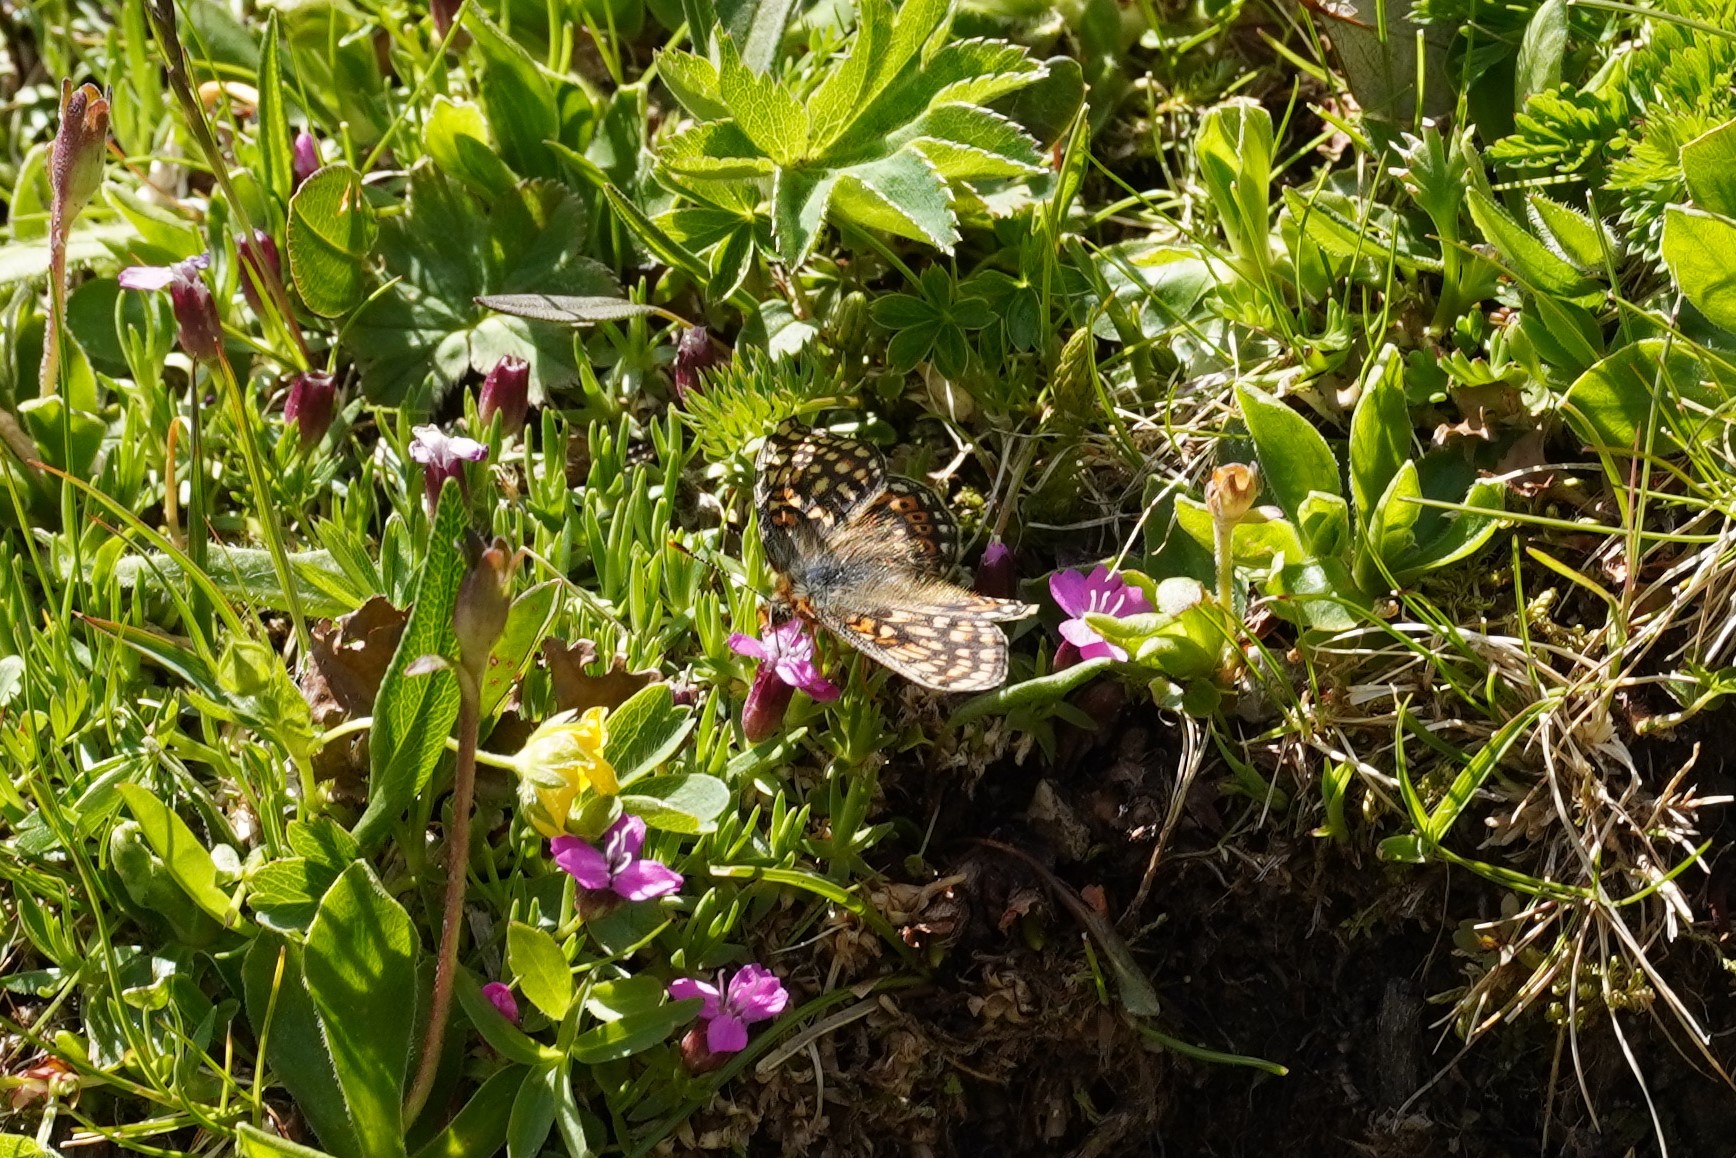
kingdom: Animalia
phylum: Arthropoda
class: Insecta
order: Lepidoptera
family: Nymphalidae
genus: Euphydryas
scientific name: Euphydryas aurinia
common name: Marsh fritillary
